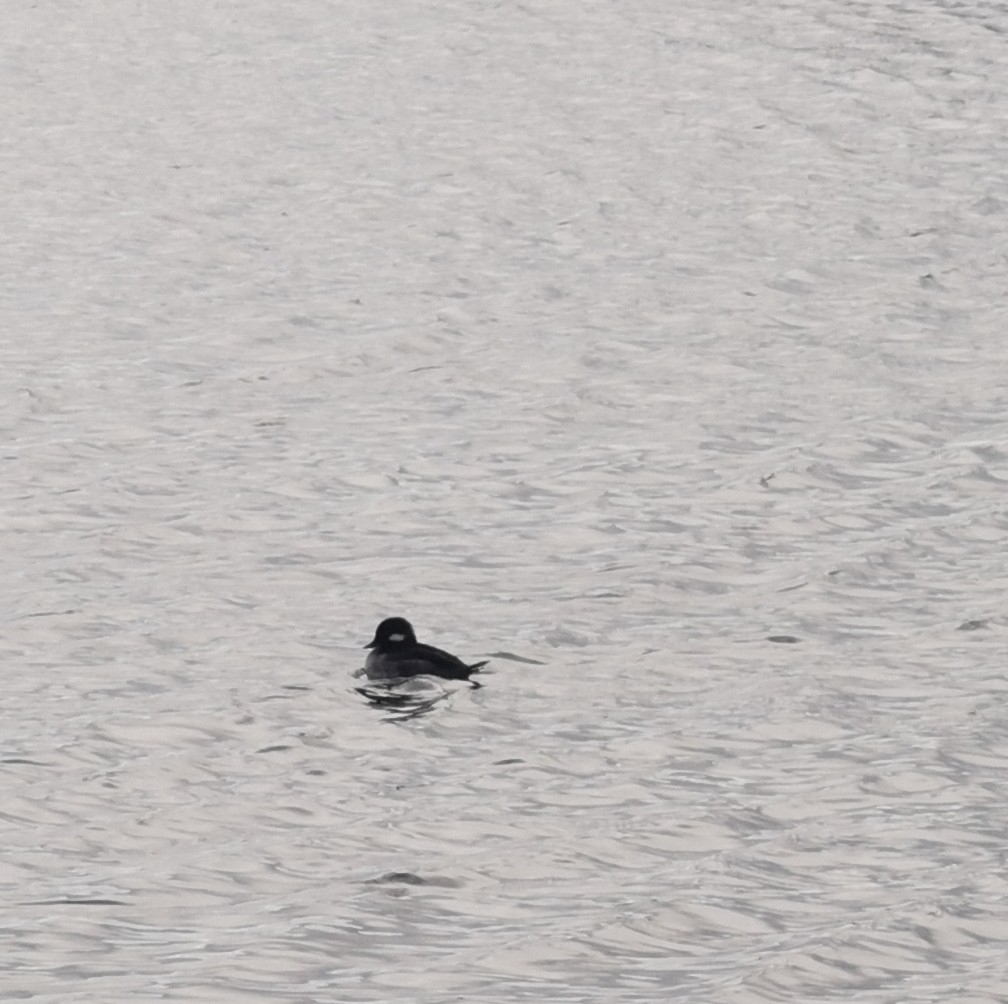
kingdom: Animalia
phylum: Chordata
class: Aves
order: Anseriformes
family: Anatidae
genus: Bucephala
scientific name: Bucephala albeola
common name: Bufflehead
